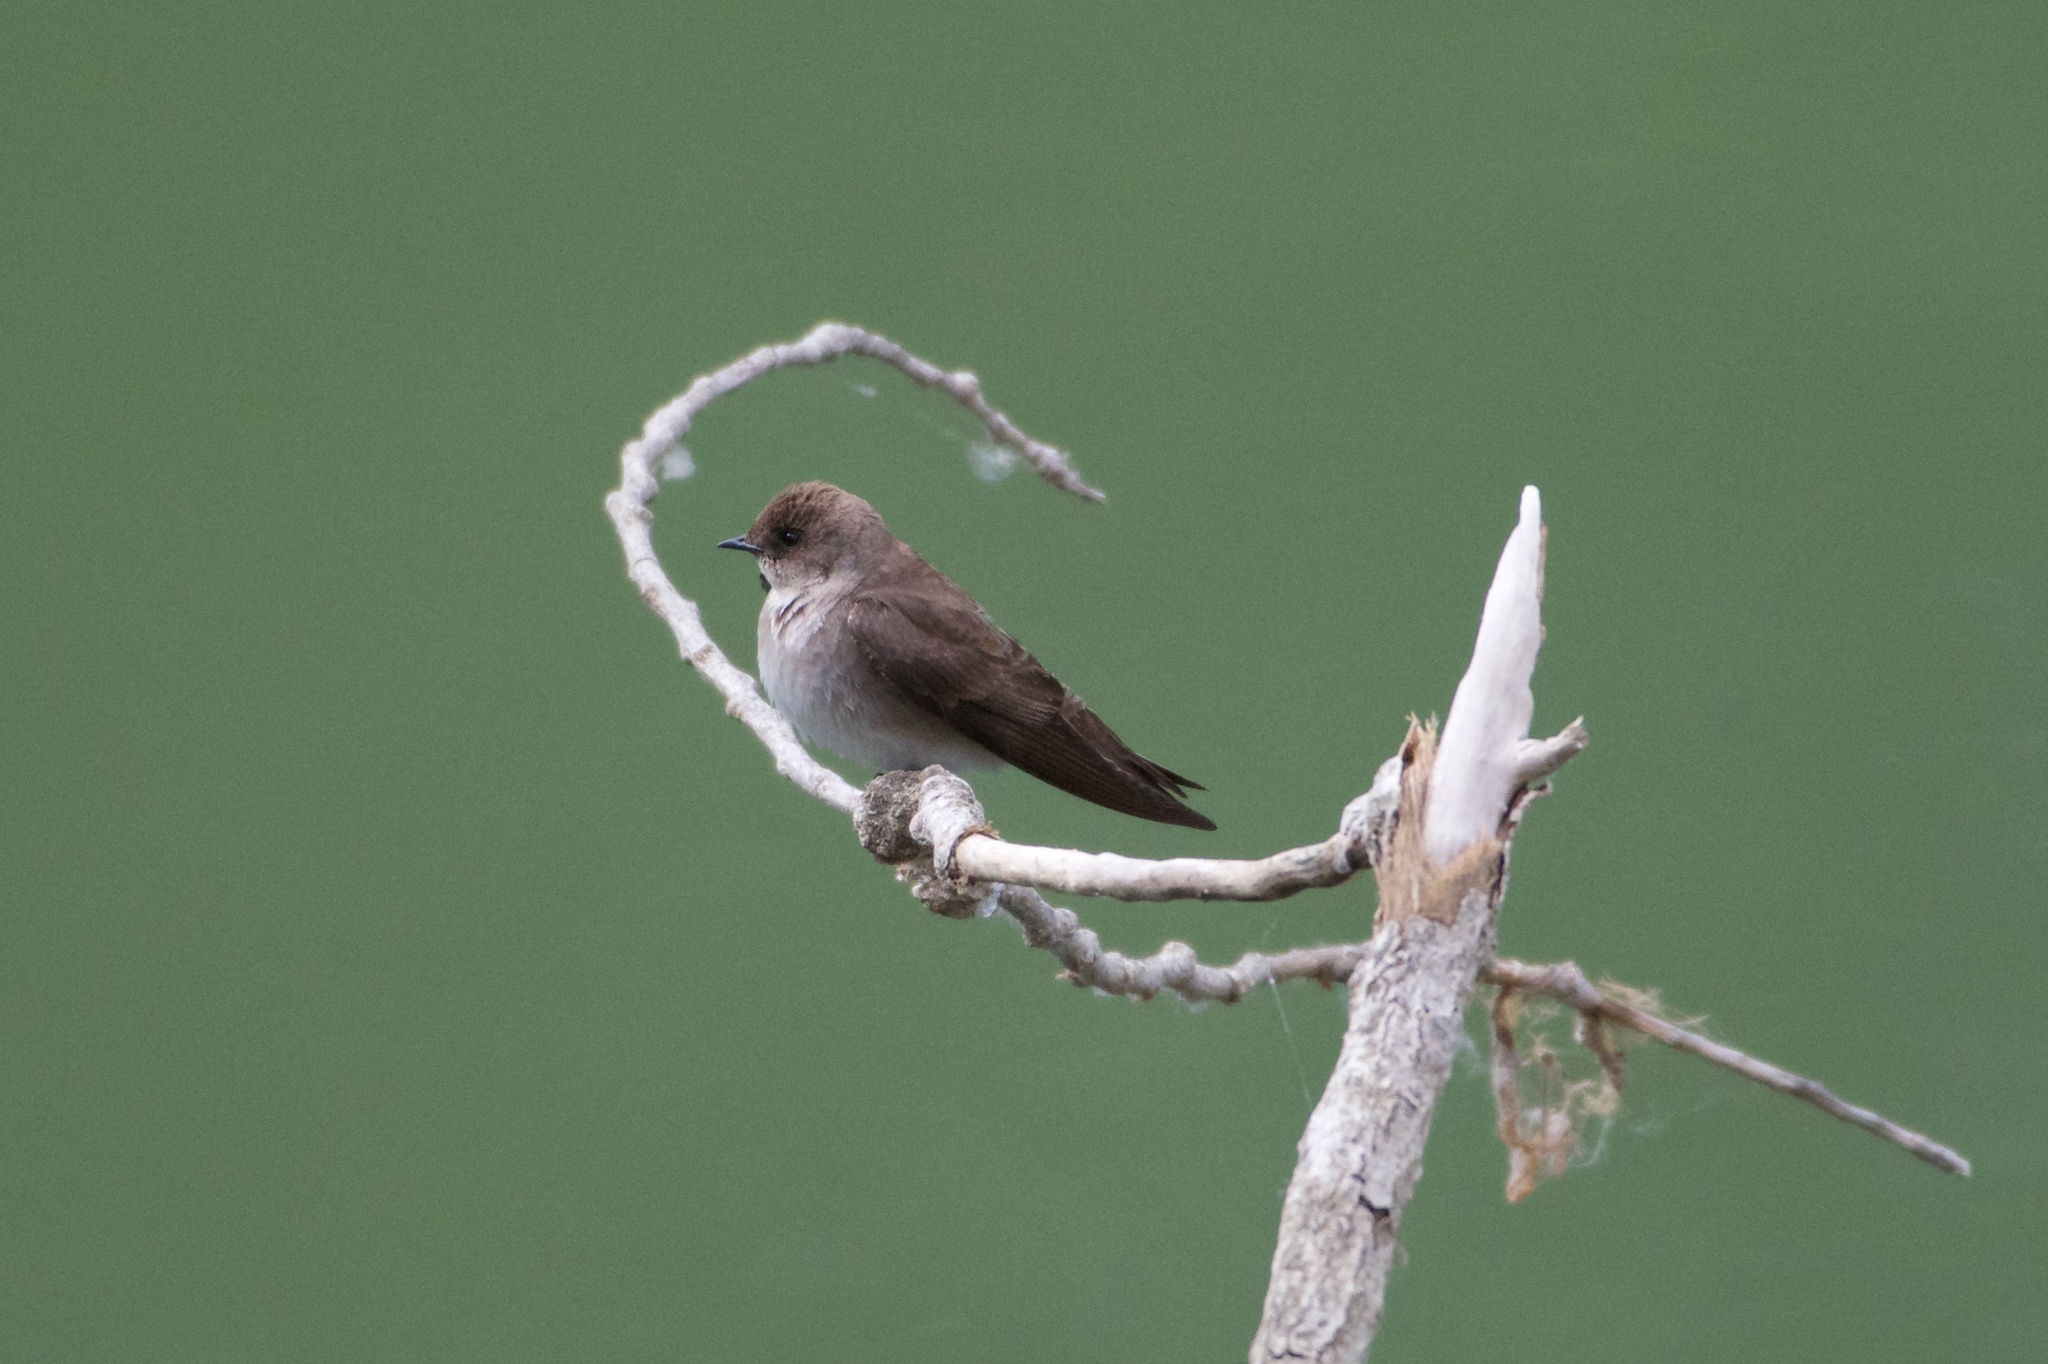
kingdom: Animalia
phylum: Chordata
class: Aves
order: Passeriformes
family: Hirundinidae
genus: Stelgidopteryx
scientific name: Stelgidopteryx serripennis
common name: Northern rough-winged swallow
